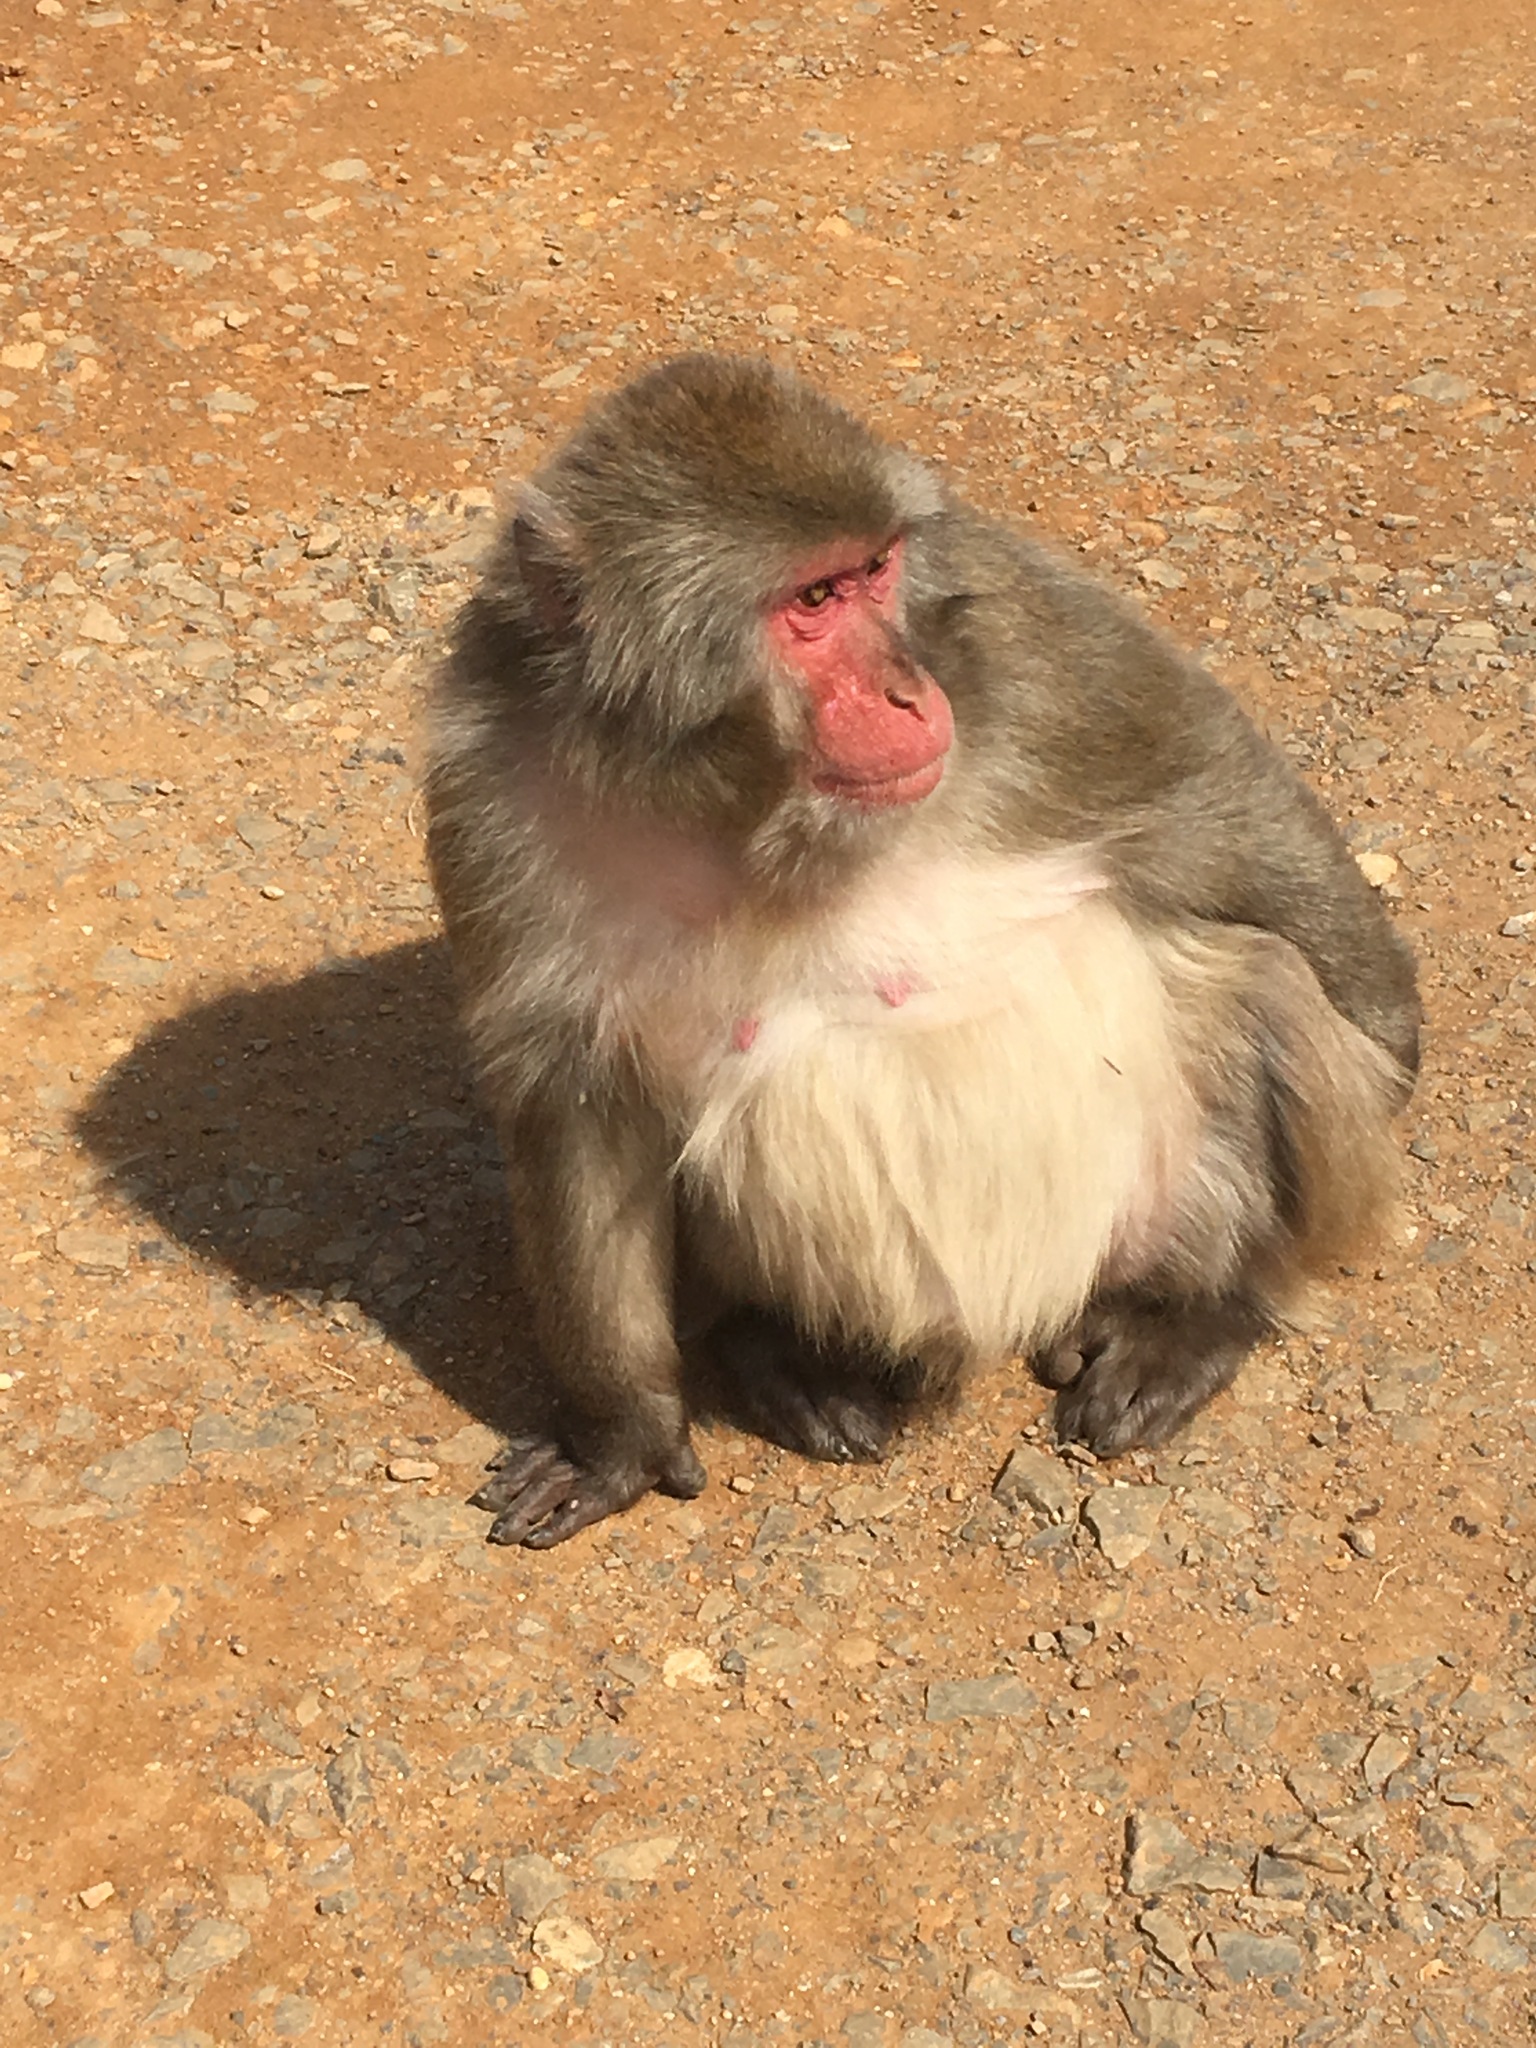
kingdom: Animalia
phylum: Chordata
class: Mammalia
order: Primates
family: Cercopithecidae
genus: Macaca
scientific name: Macaca fuscata
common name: Japanese macaque
